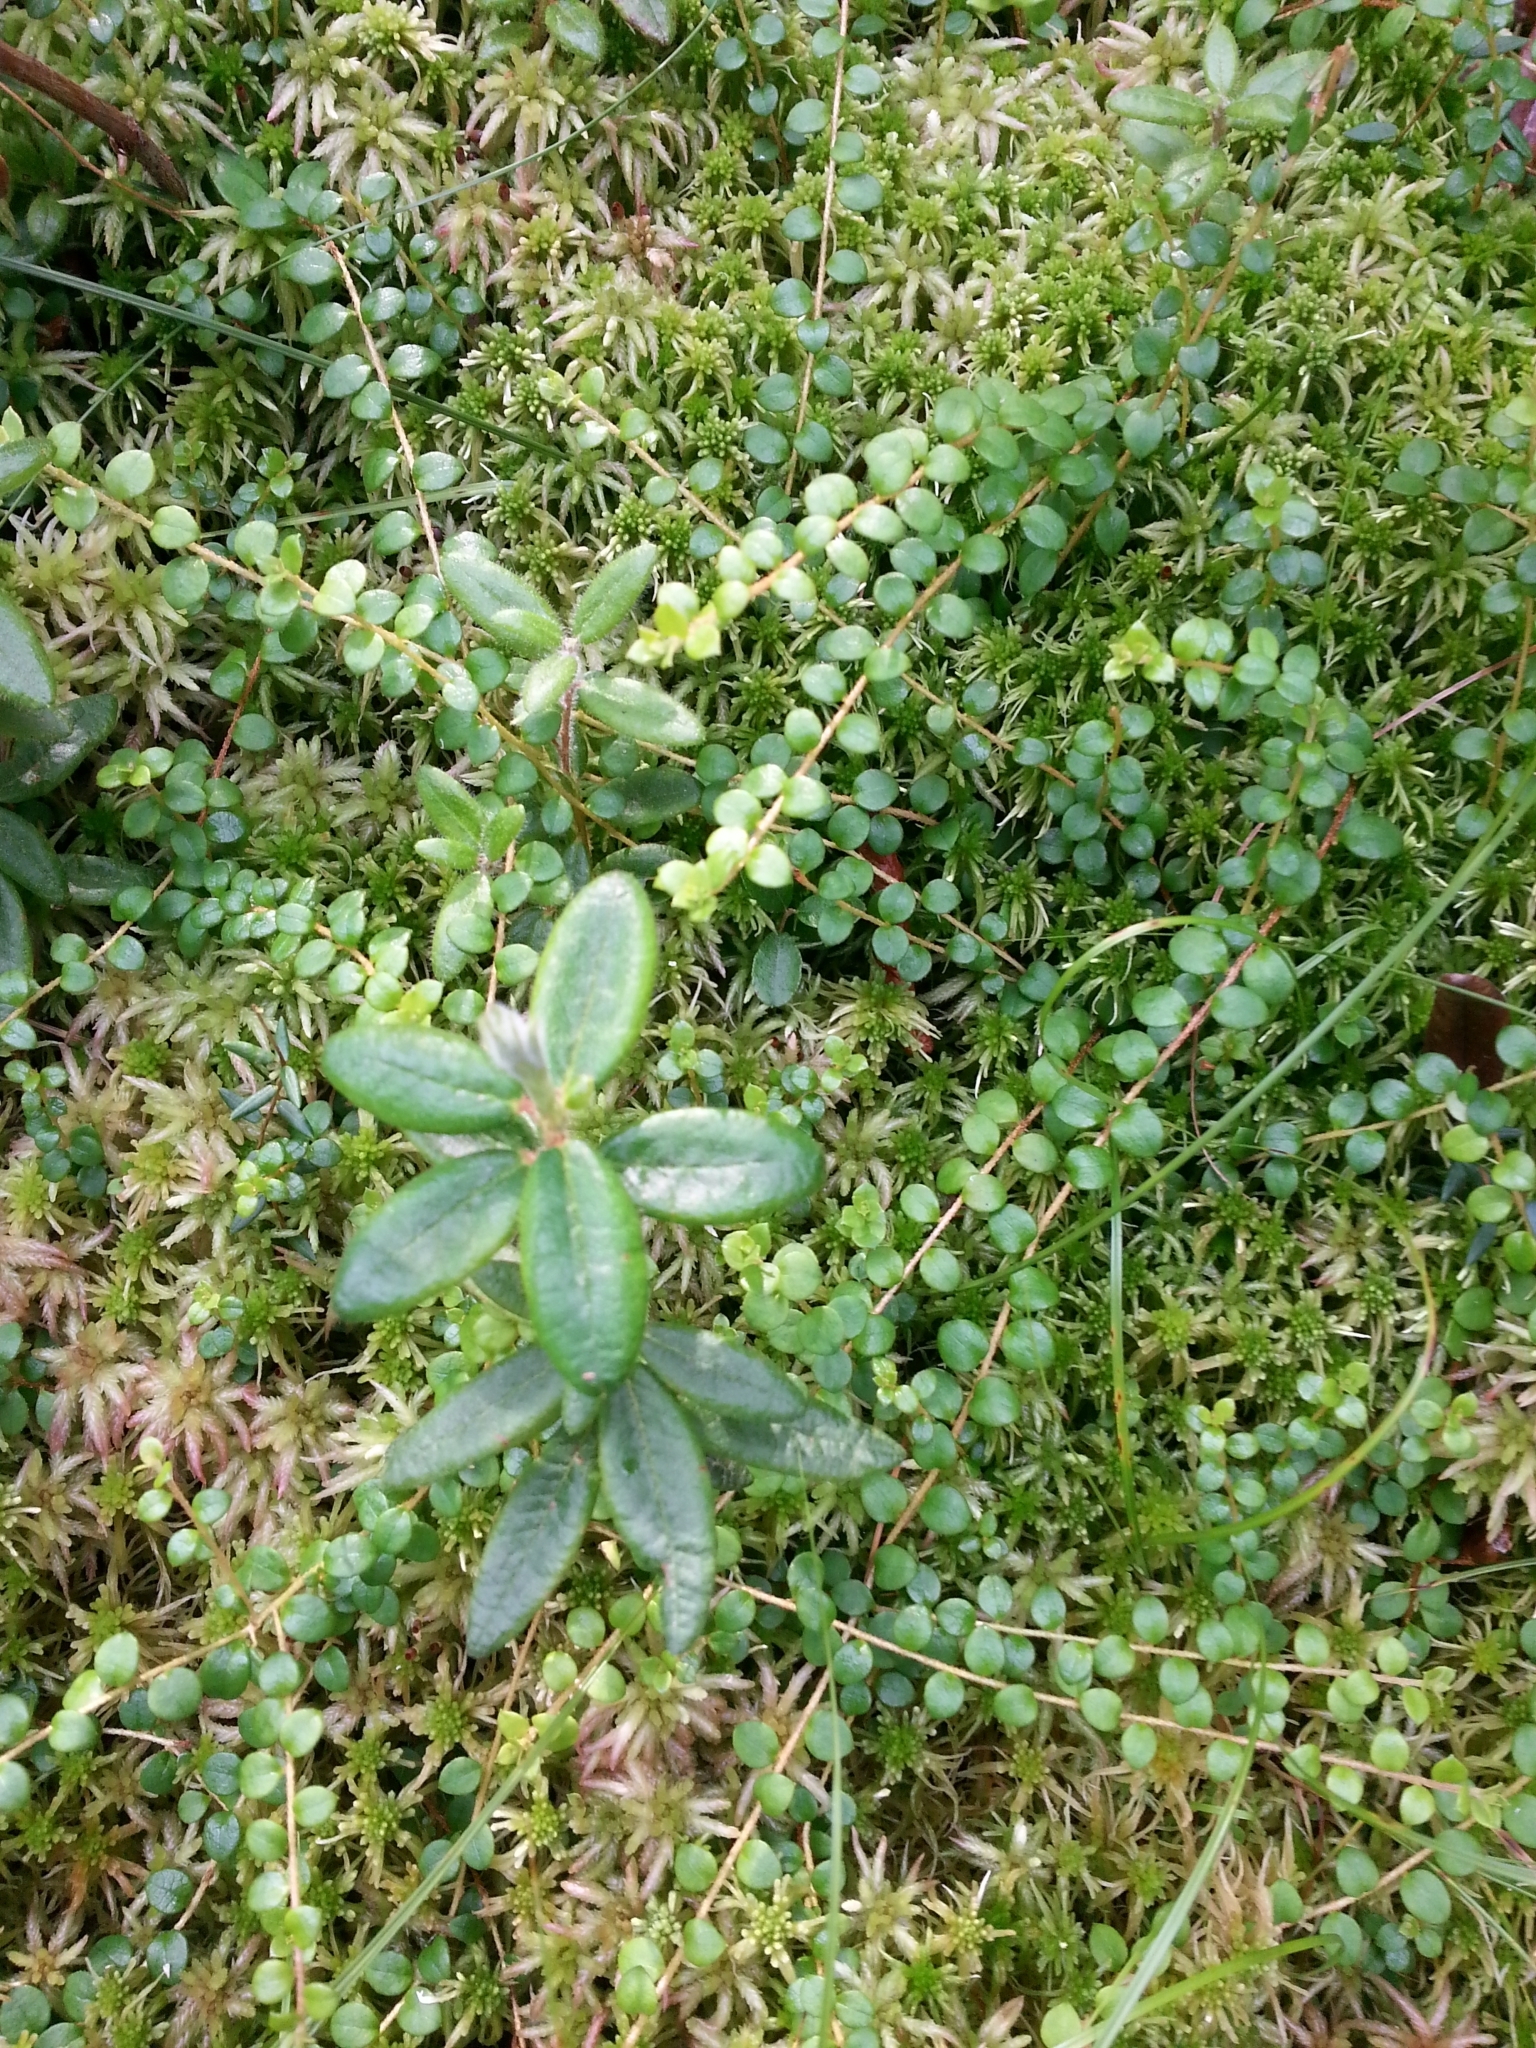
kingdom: Plantae
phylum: Tracheophyta
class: Magnoliopsida
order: Ericales
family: Ericaceae
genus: Gaultheria
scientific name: Gaultheria hispidula
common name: Cancer wintergreen
